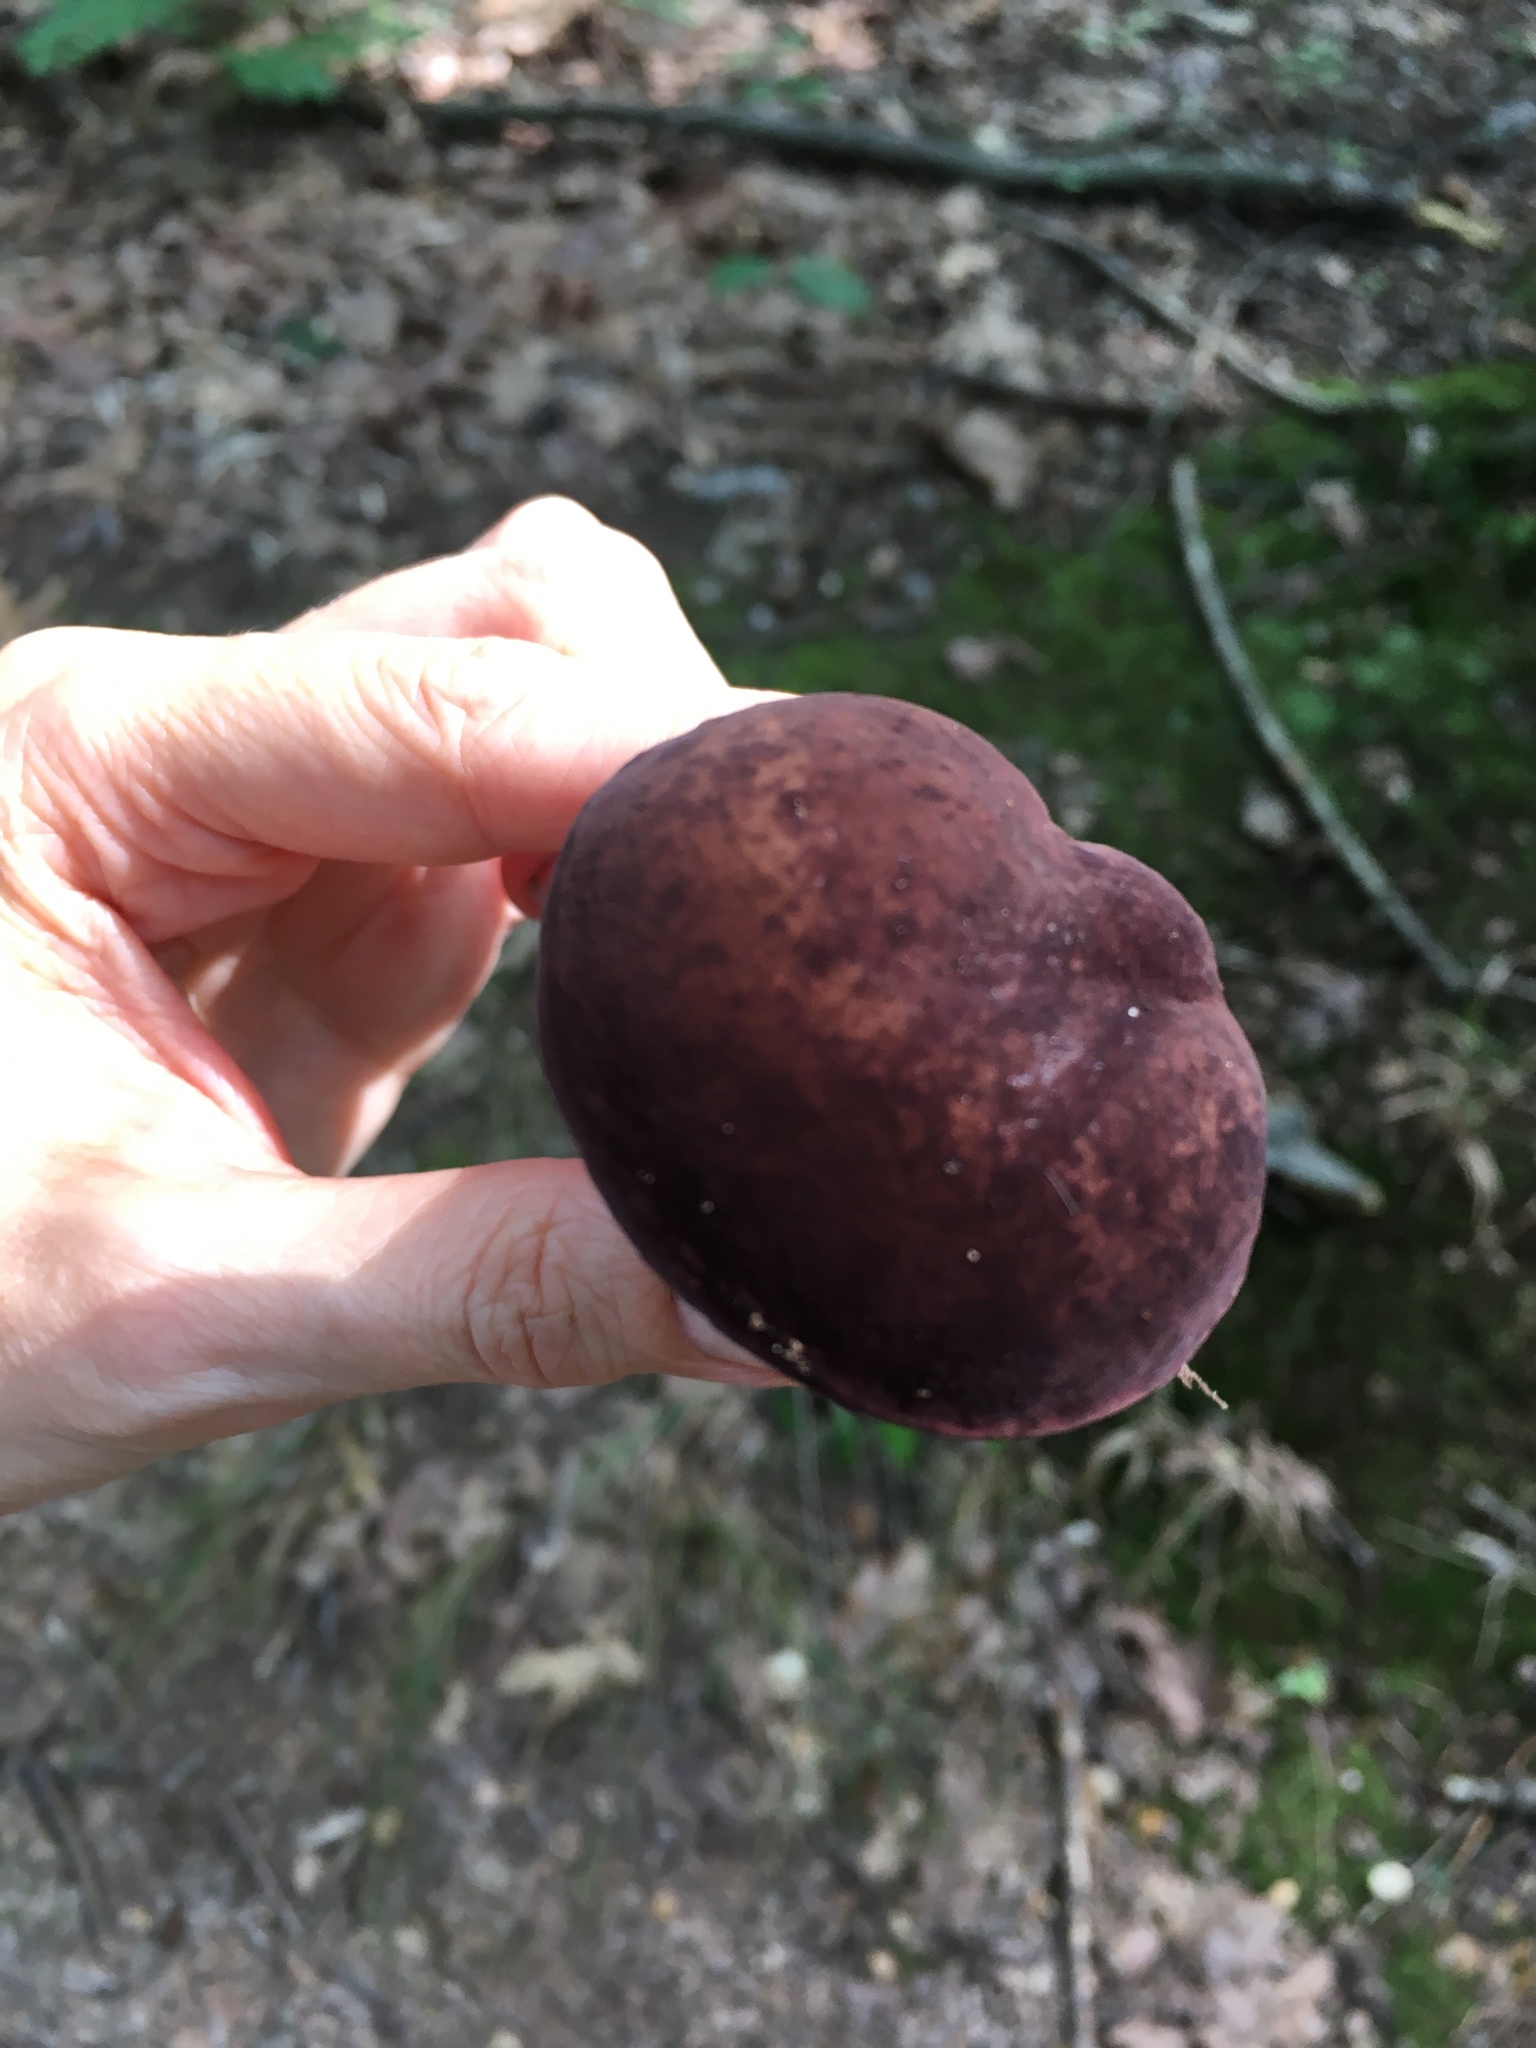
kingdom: Fungi
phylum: Basidiomycota
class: Agaricomycetes
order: Boletales
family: Boletaceae
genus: Tylopilus
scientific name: Tylopilus badiceps
